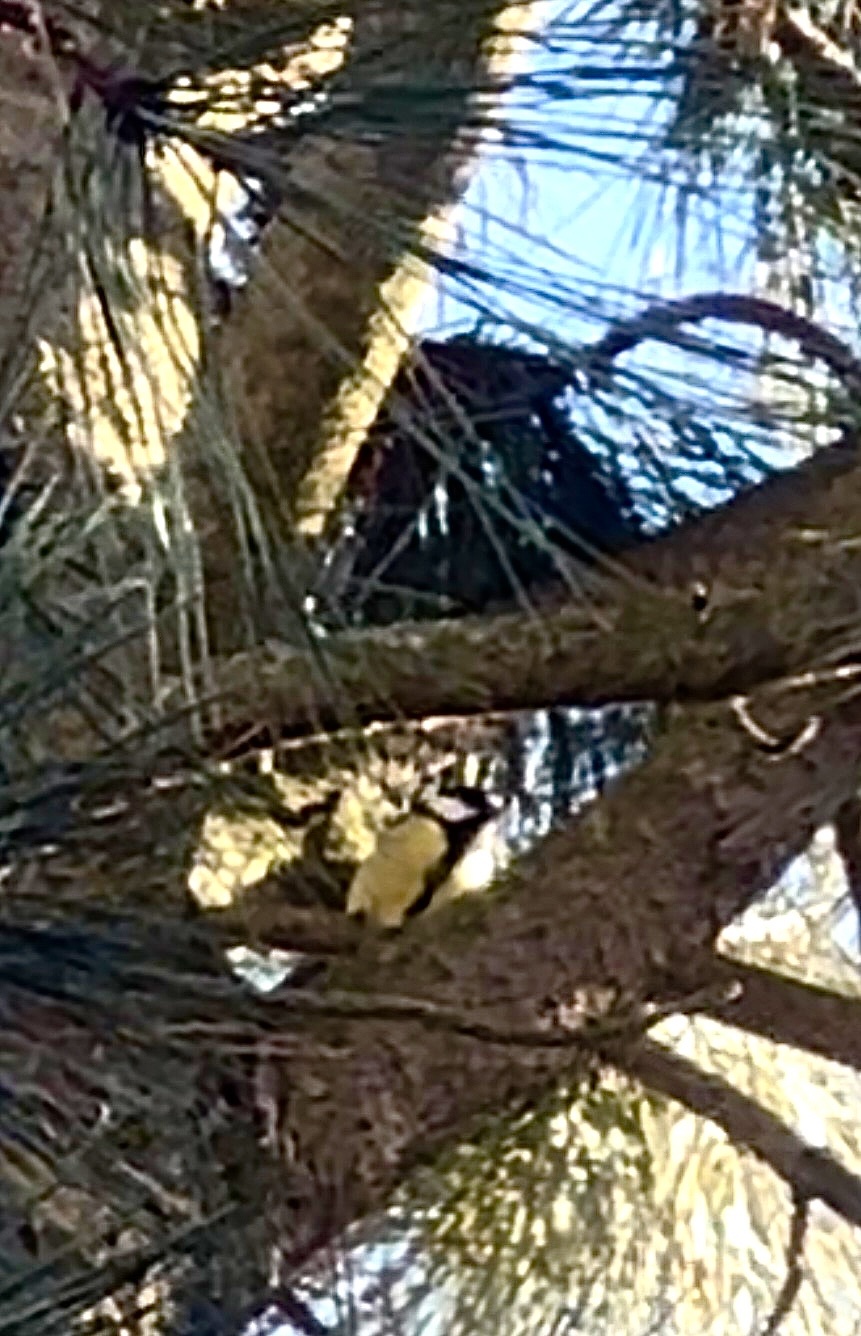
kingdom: Animalia
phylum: Chordata
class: Aves
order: Passeriformes
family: Paridae
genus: Parus
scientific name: Parus major
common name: Great tit
